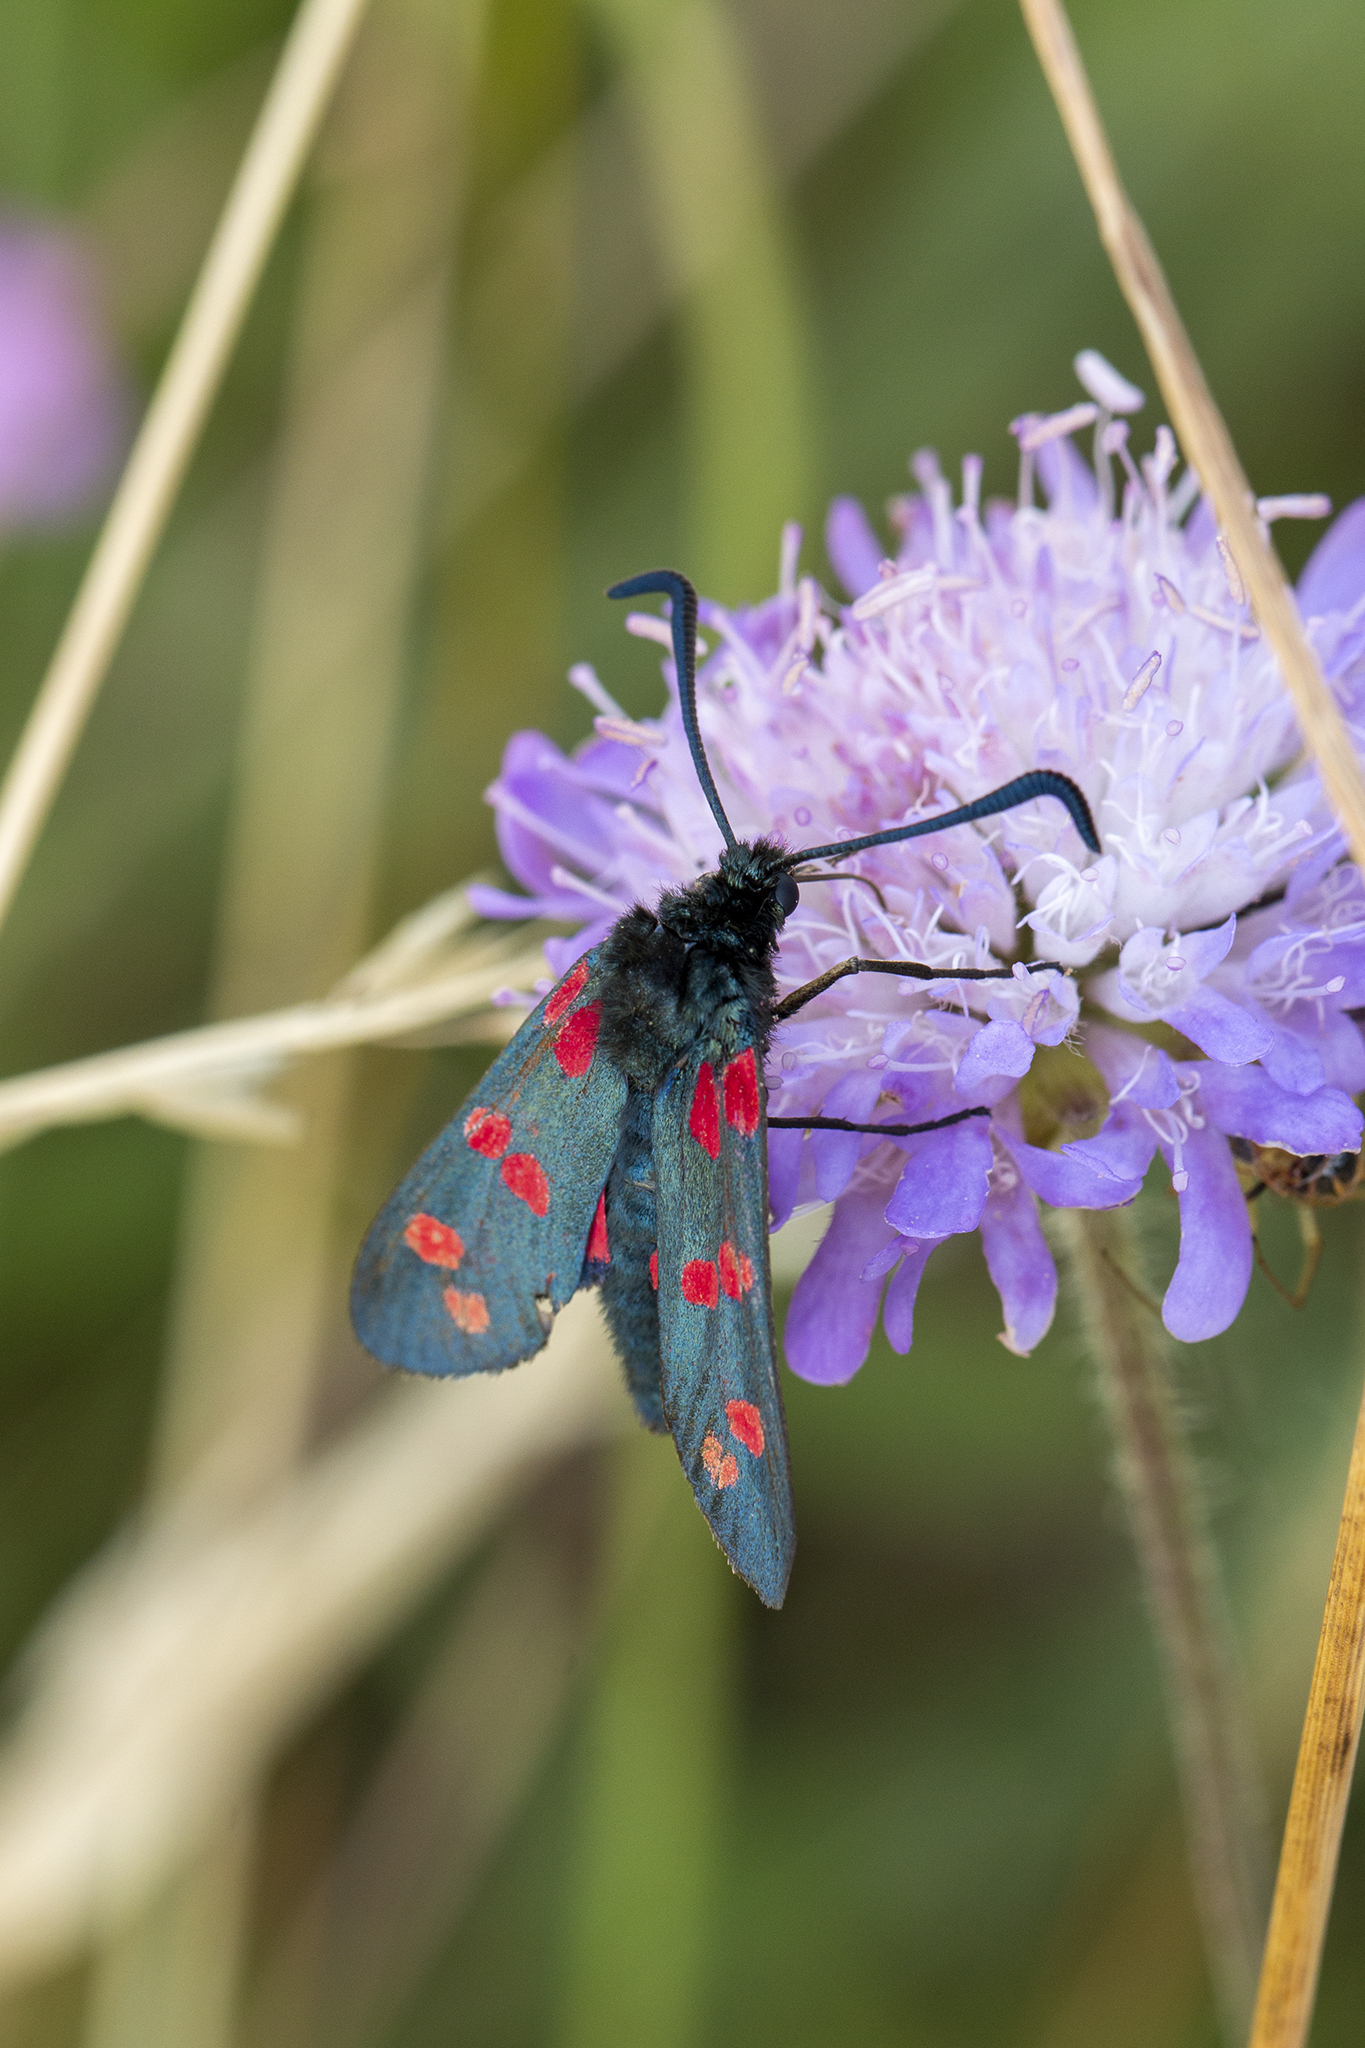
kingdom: Animalia
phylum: Arthropoda
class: Insecta
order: Lepidoptera
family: Zygaenidae
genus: Zygaena
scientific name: Zygaena filipendulae
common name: Six-spot burnet
